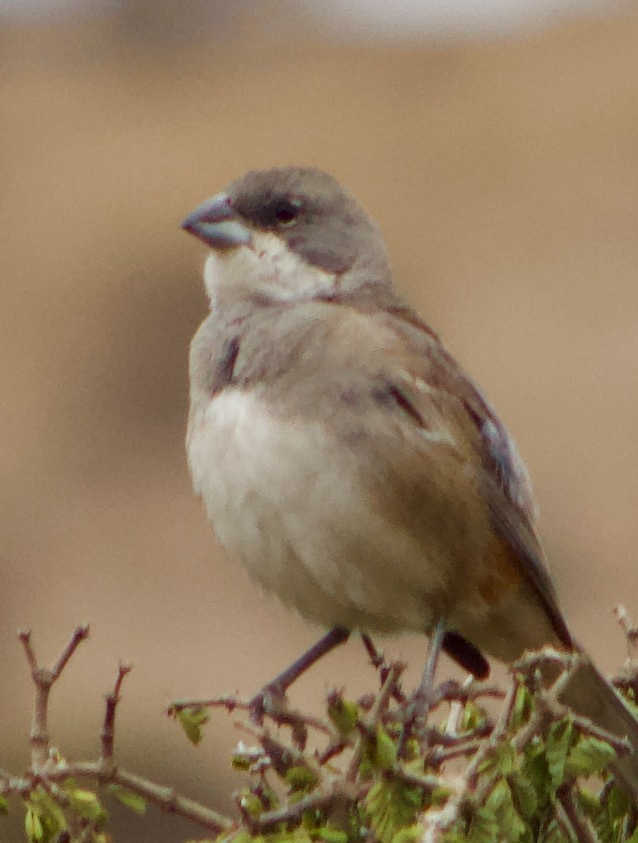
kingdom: Animalia
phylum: Chordata
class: Aves
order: Passeriformes
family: Thraupidae
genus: Diuca
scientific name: Diuca diuca
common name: Common diuca finch
